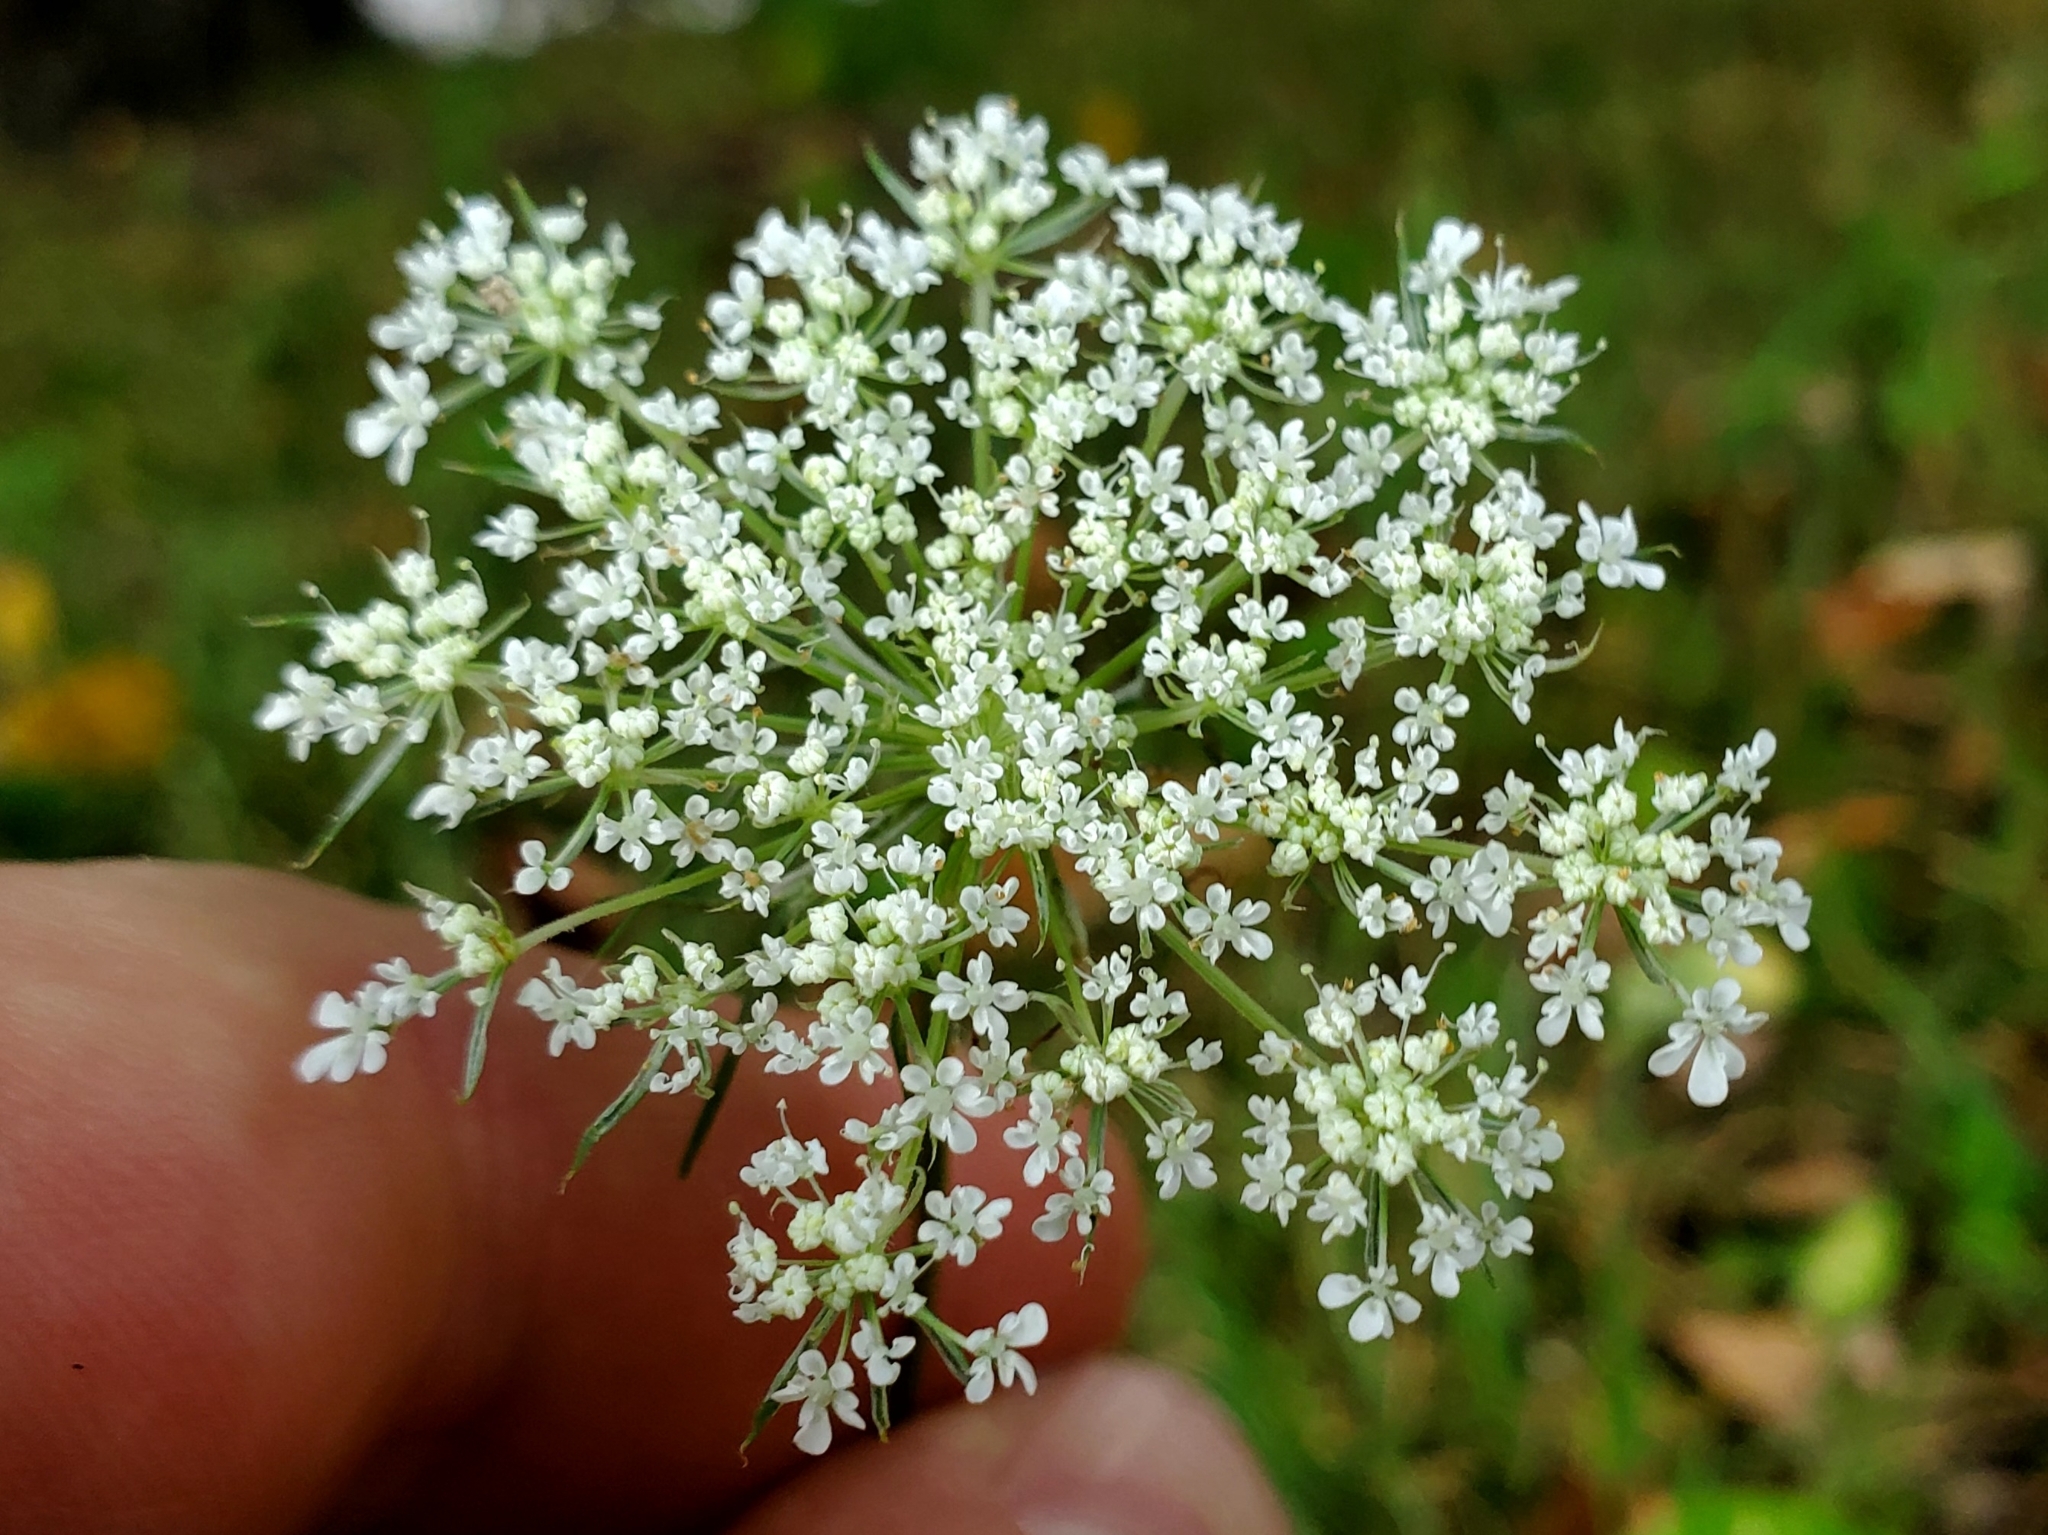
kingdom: Plantae
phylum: Tracheophyta
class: Magnoliopsida
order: Apiales
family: Apiaceae
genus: Daucus
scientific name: Daucus carota
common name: Wild carrot
